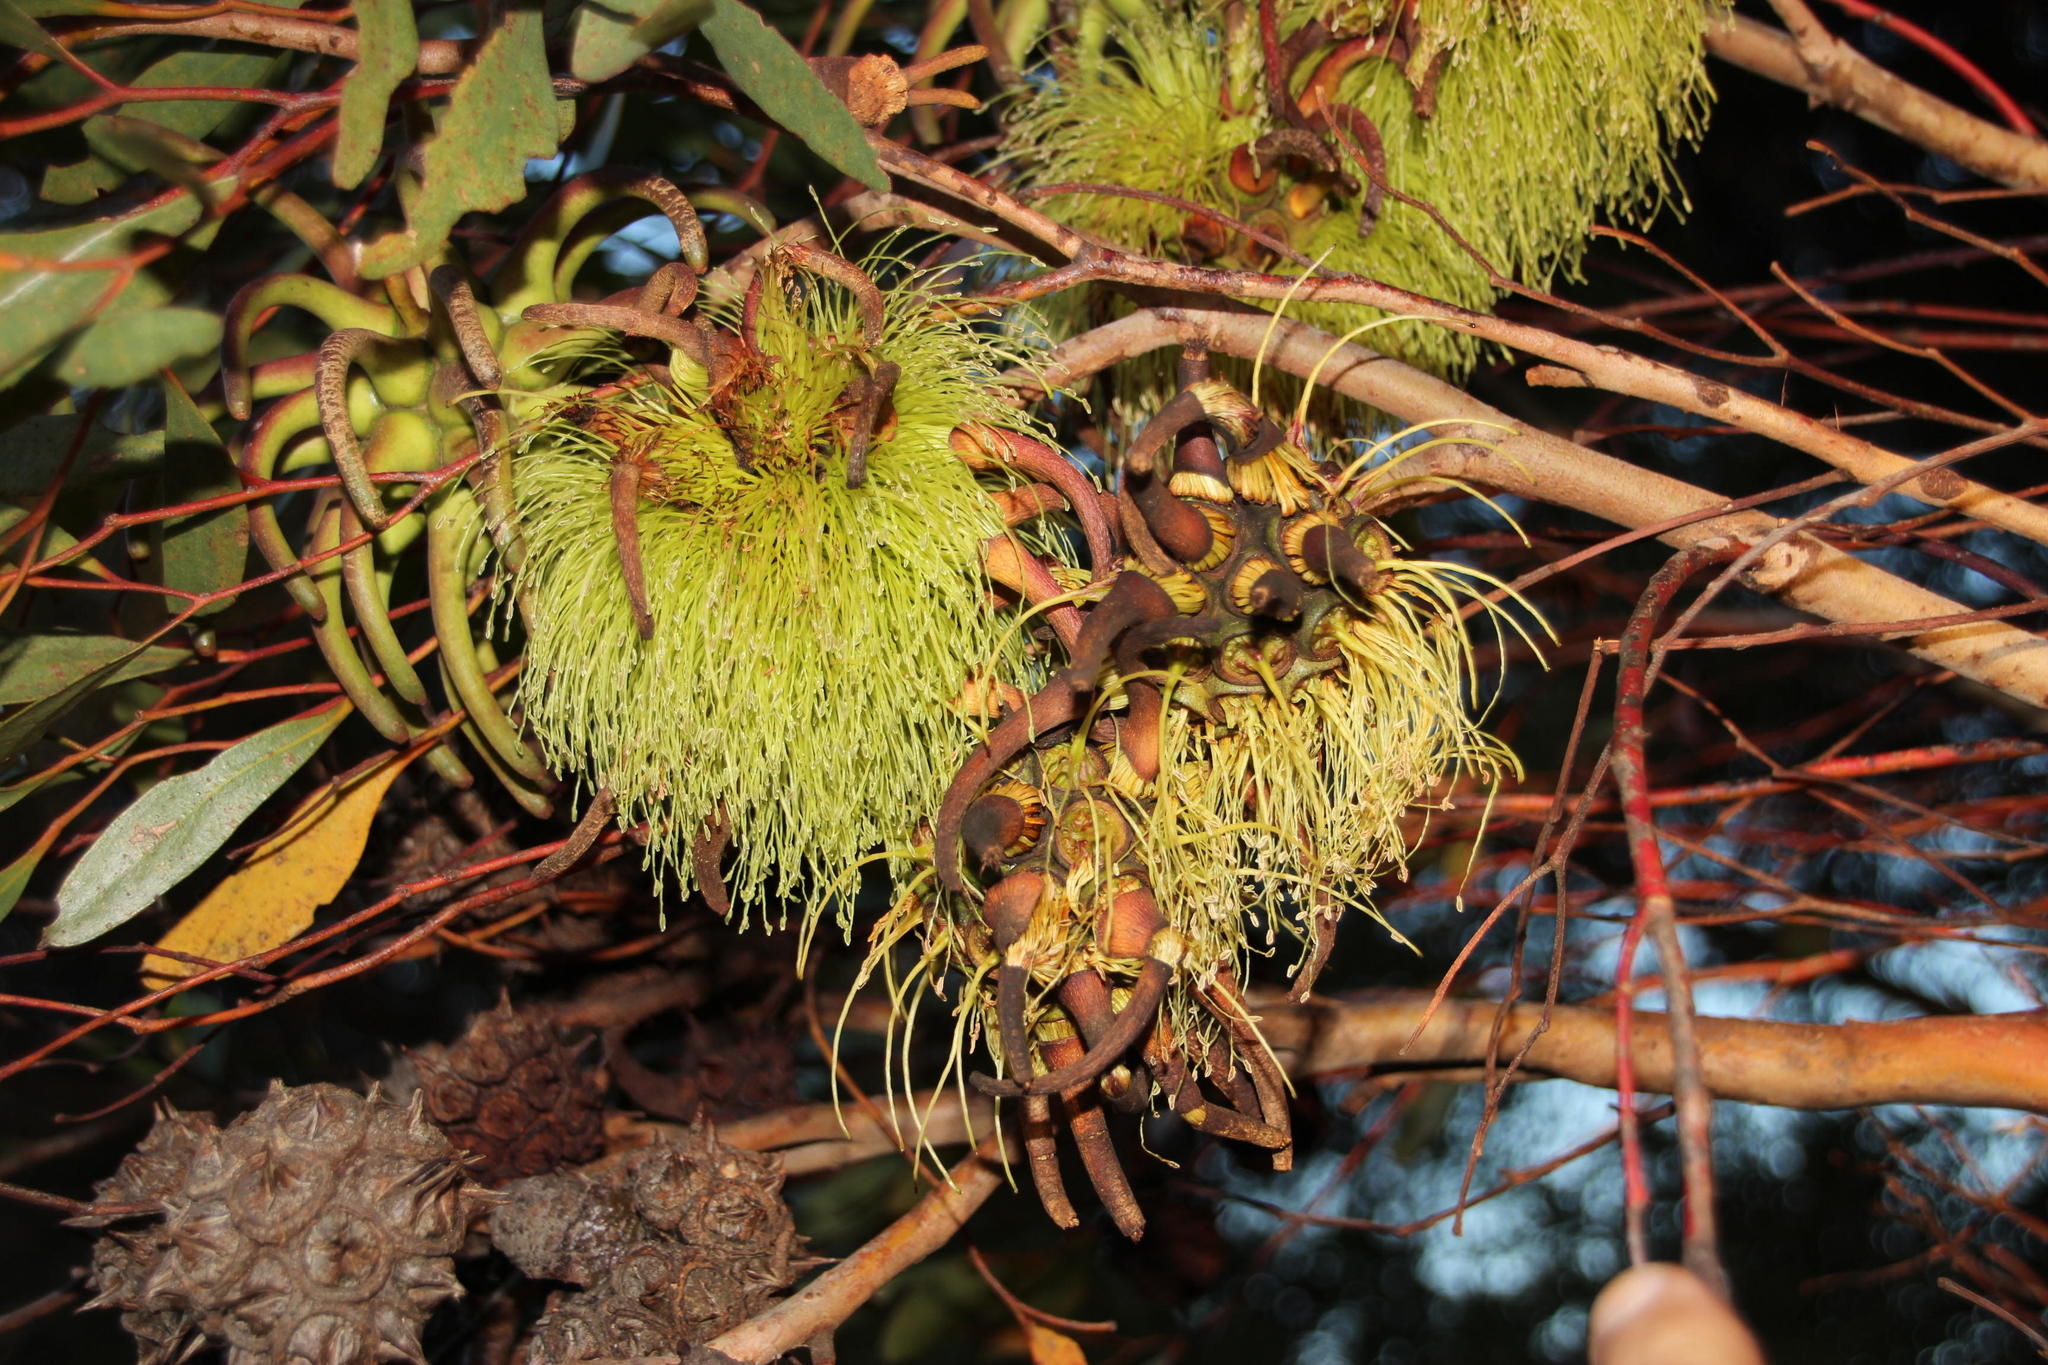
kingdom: Plantae
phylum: Tracheophyta
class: Magnoliopsida
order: Myrtales
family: Myrtaceae
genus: Eucalyptus
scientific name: Eucalyptus conferruminata
